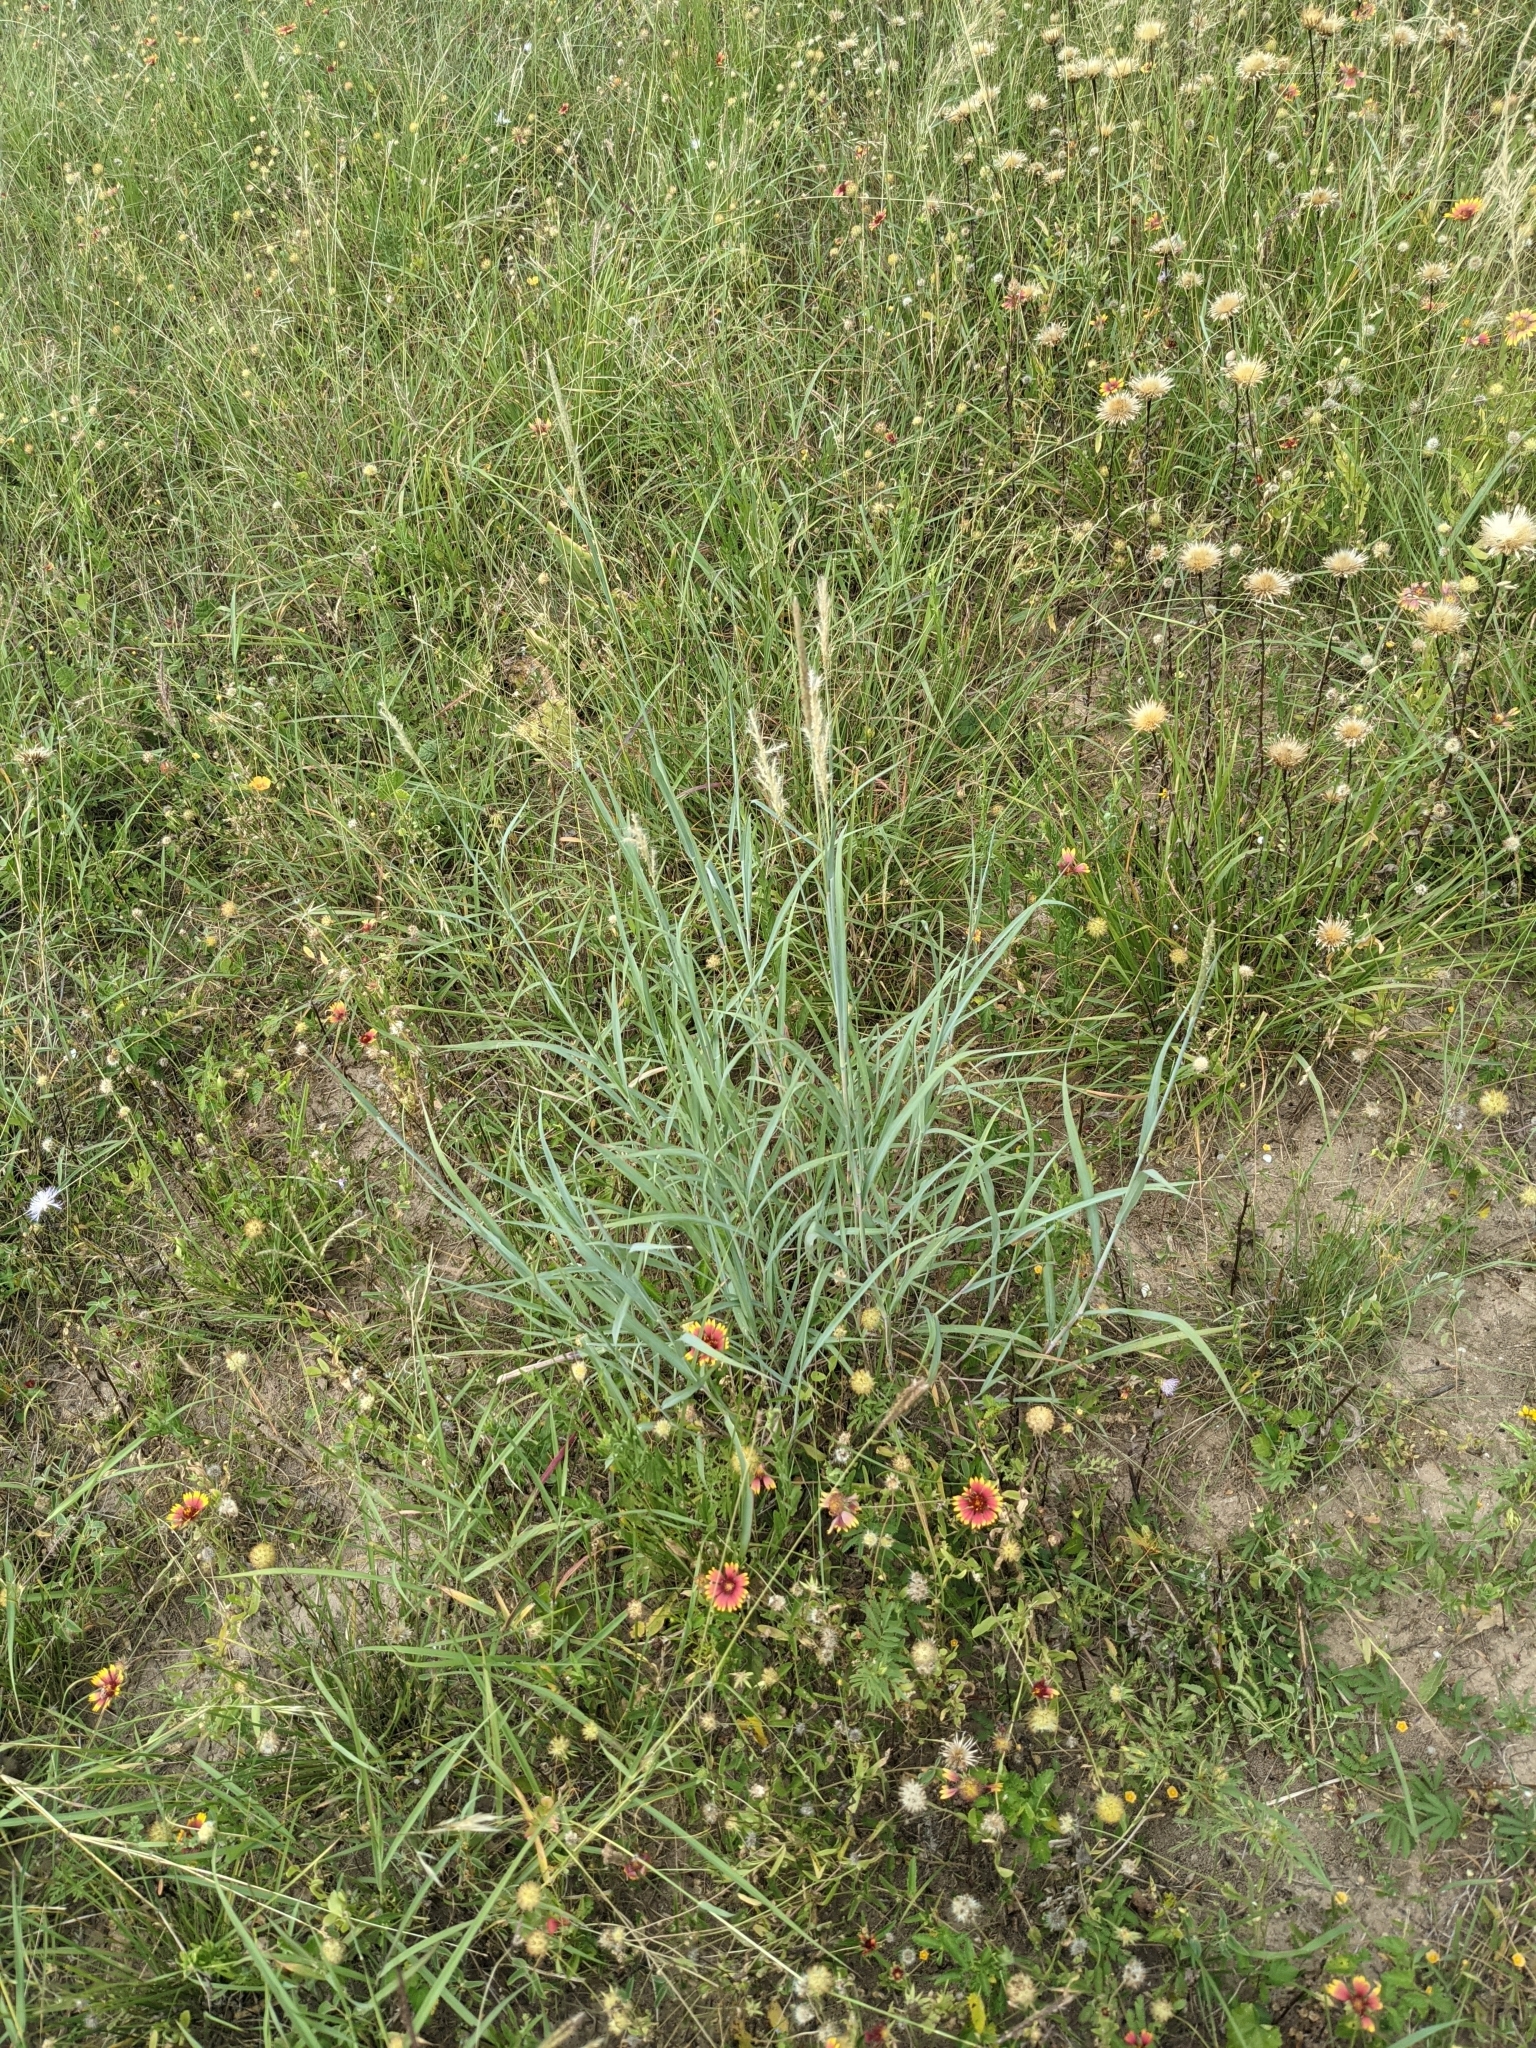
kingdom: Plantae
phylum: Tracheophyta
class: Liliopsida
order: Poales
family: Poaceae
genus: Bothriochloa
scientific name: Bothriochloa torreyana
